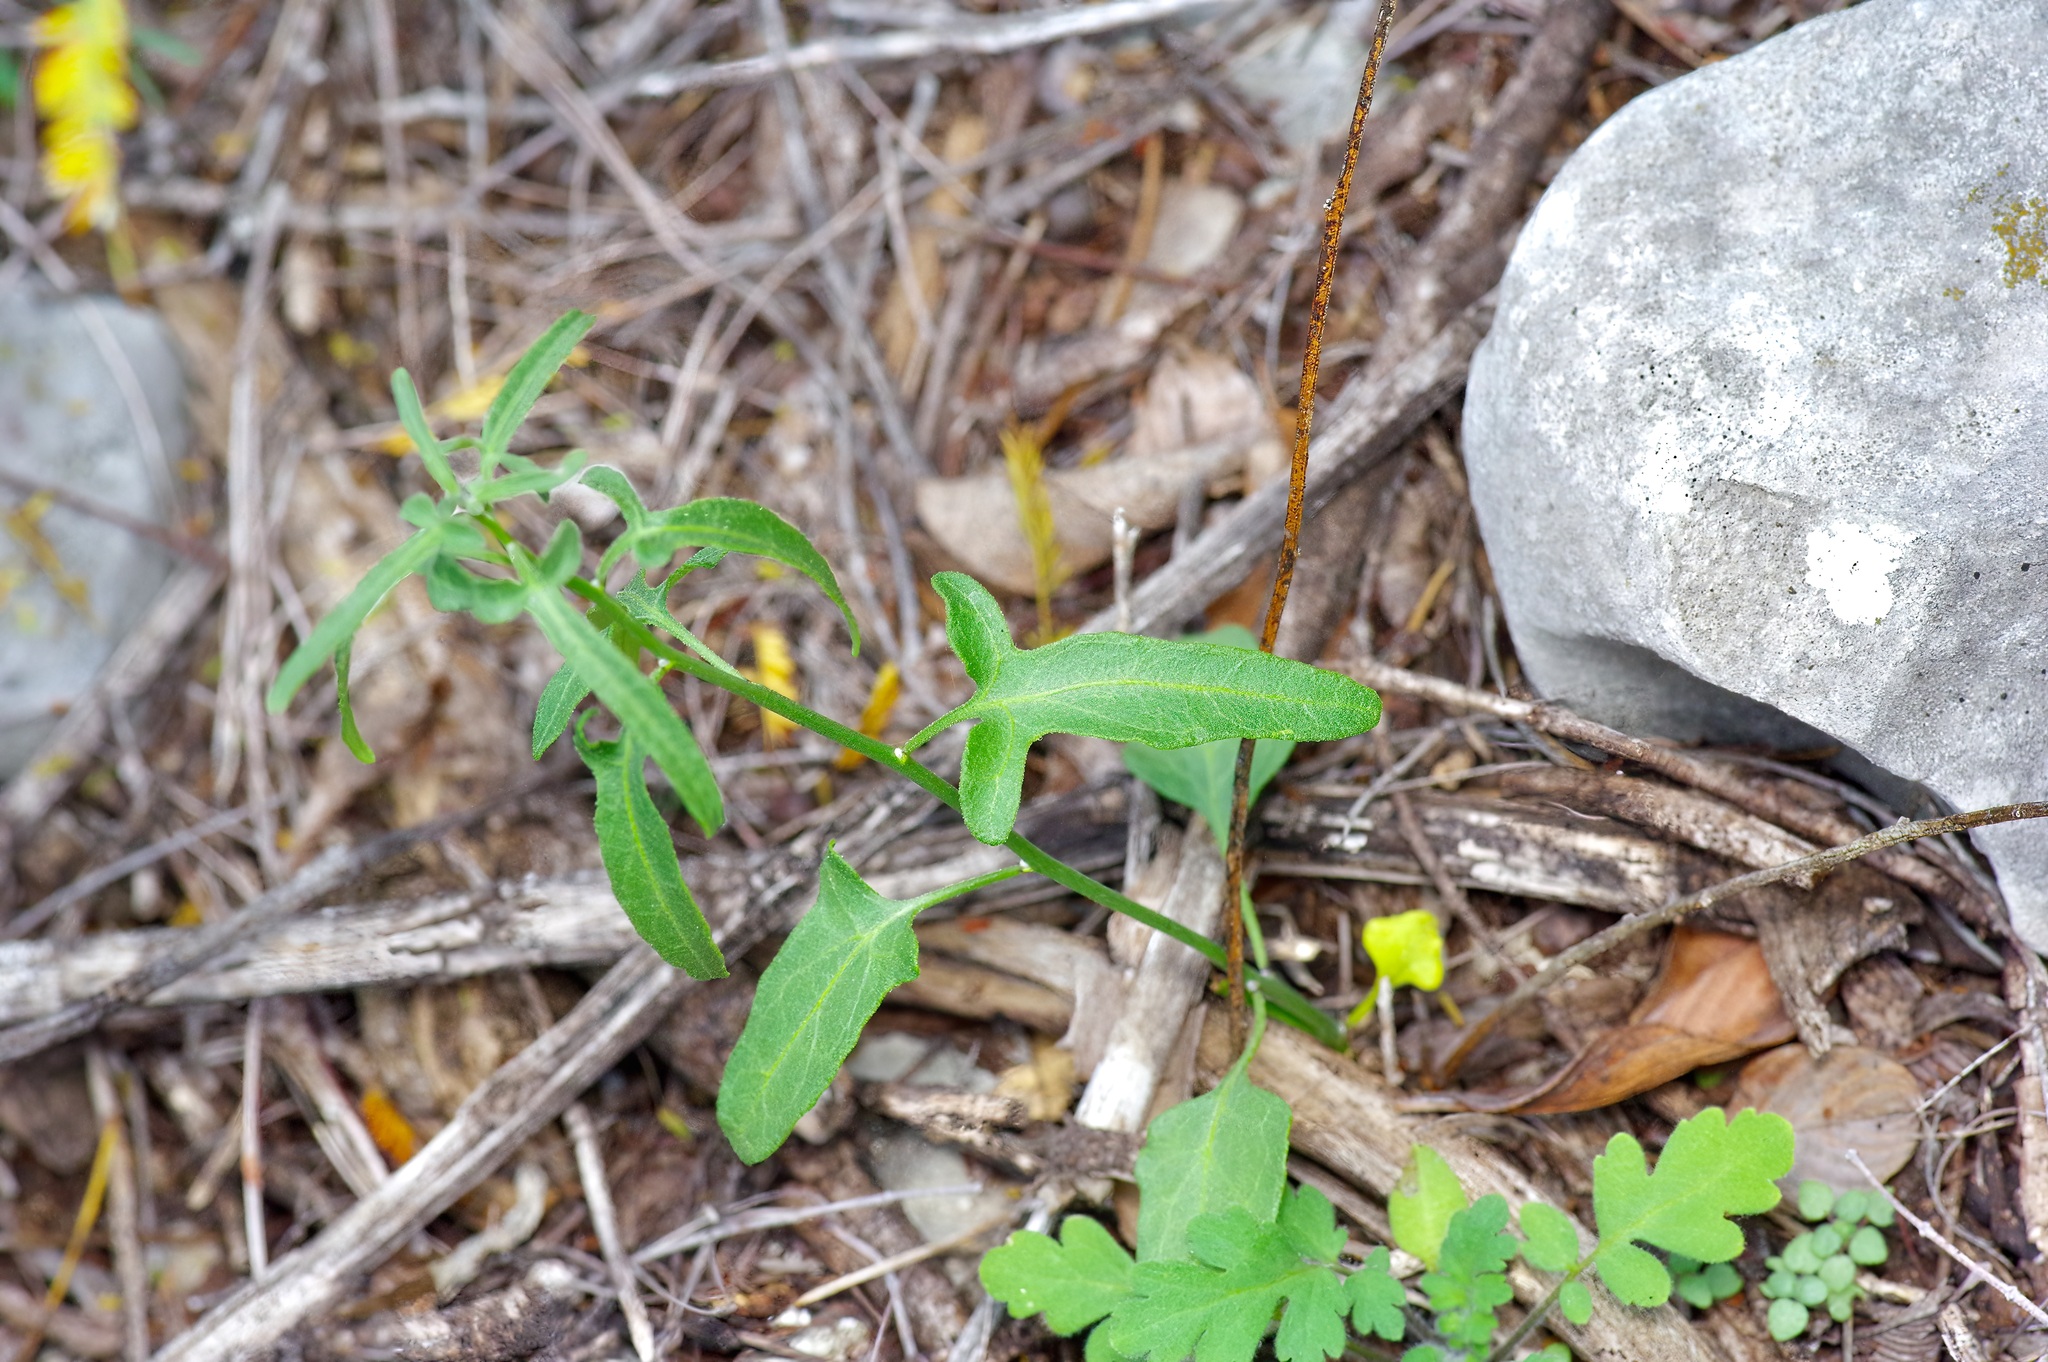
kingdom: Plantae
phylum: Tracheophyta
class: Magnoliopsida
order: Solanales
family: Solanaceae
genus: Solanum
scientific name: Solanum triquetrum
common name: Texas nightshade
